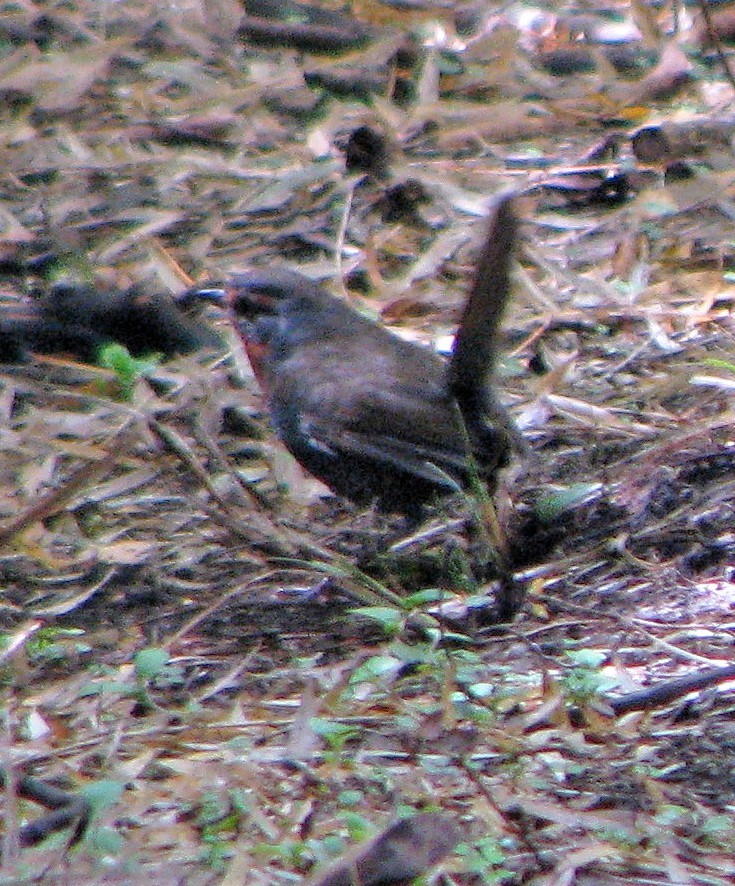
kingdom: Animalia
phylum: Chordata
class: Aves
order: Passeriformes
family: Rhinocryptidae
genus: Scelorchilus
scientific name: Scelorchilus rubecula
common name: Chucao tapaculo
